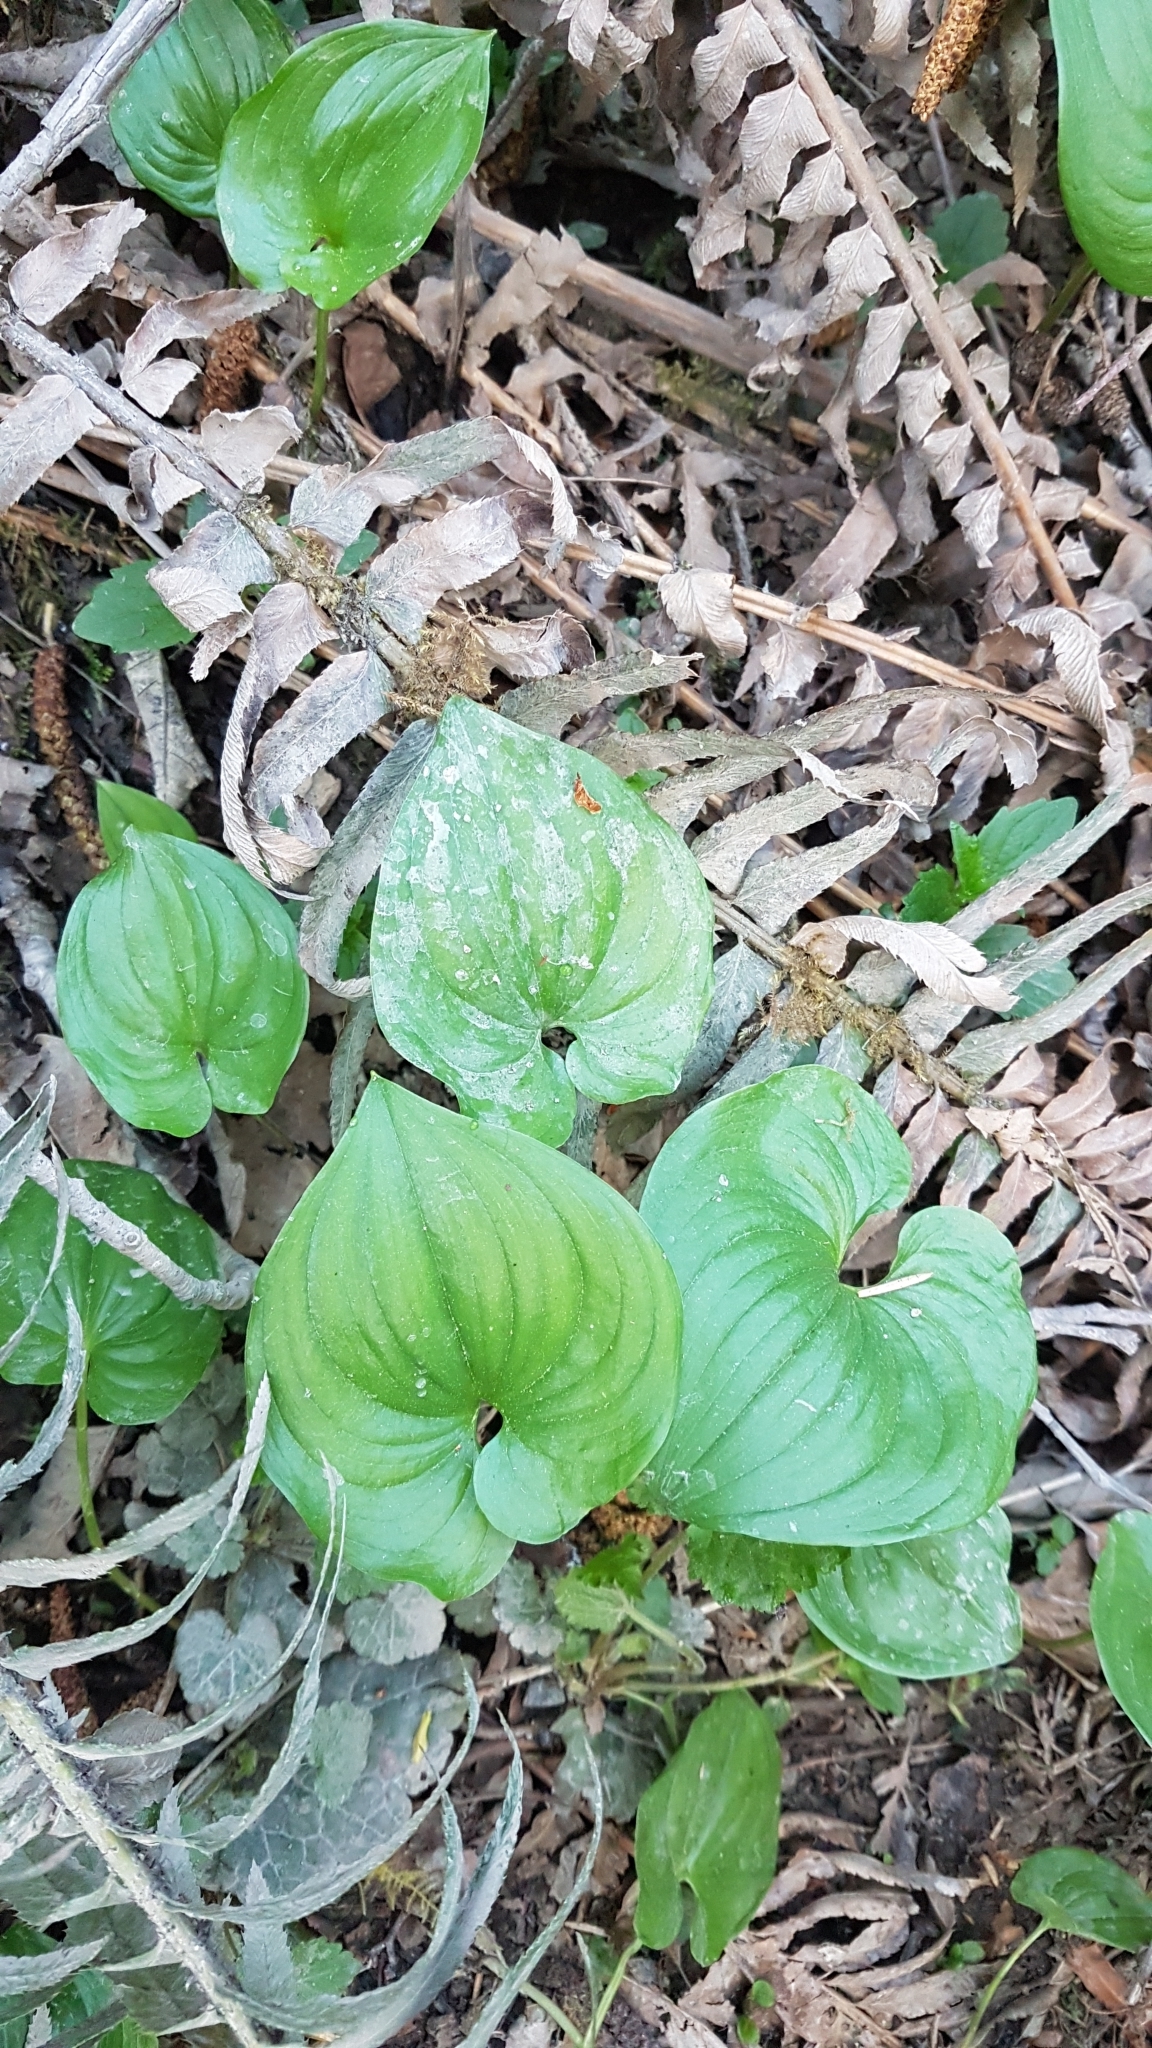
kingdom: Plantae
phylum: Tracheophyta
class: Liliopsida
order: Asparagales
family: Asparagaceae
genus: Maianthemum
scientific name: Maianthemum dilatatum
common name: False lily-of-the-valley
